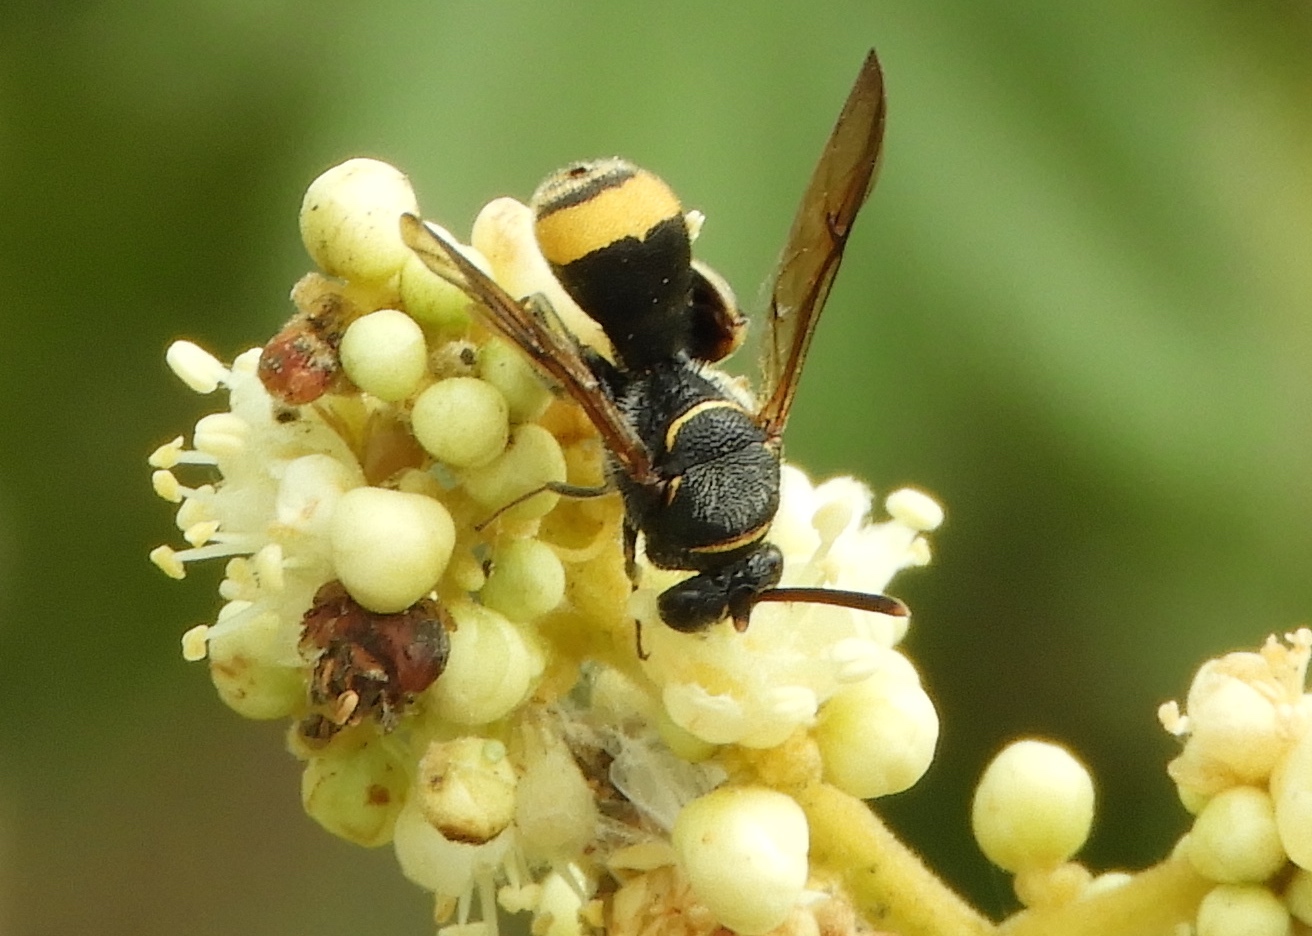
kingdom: Animalia
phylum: Arthropoda
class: Insecta
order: Hymenoptera
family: Leucospidae
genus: Leucospis
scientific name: Leucospis
